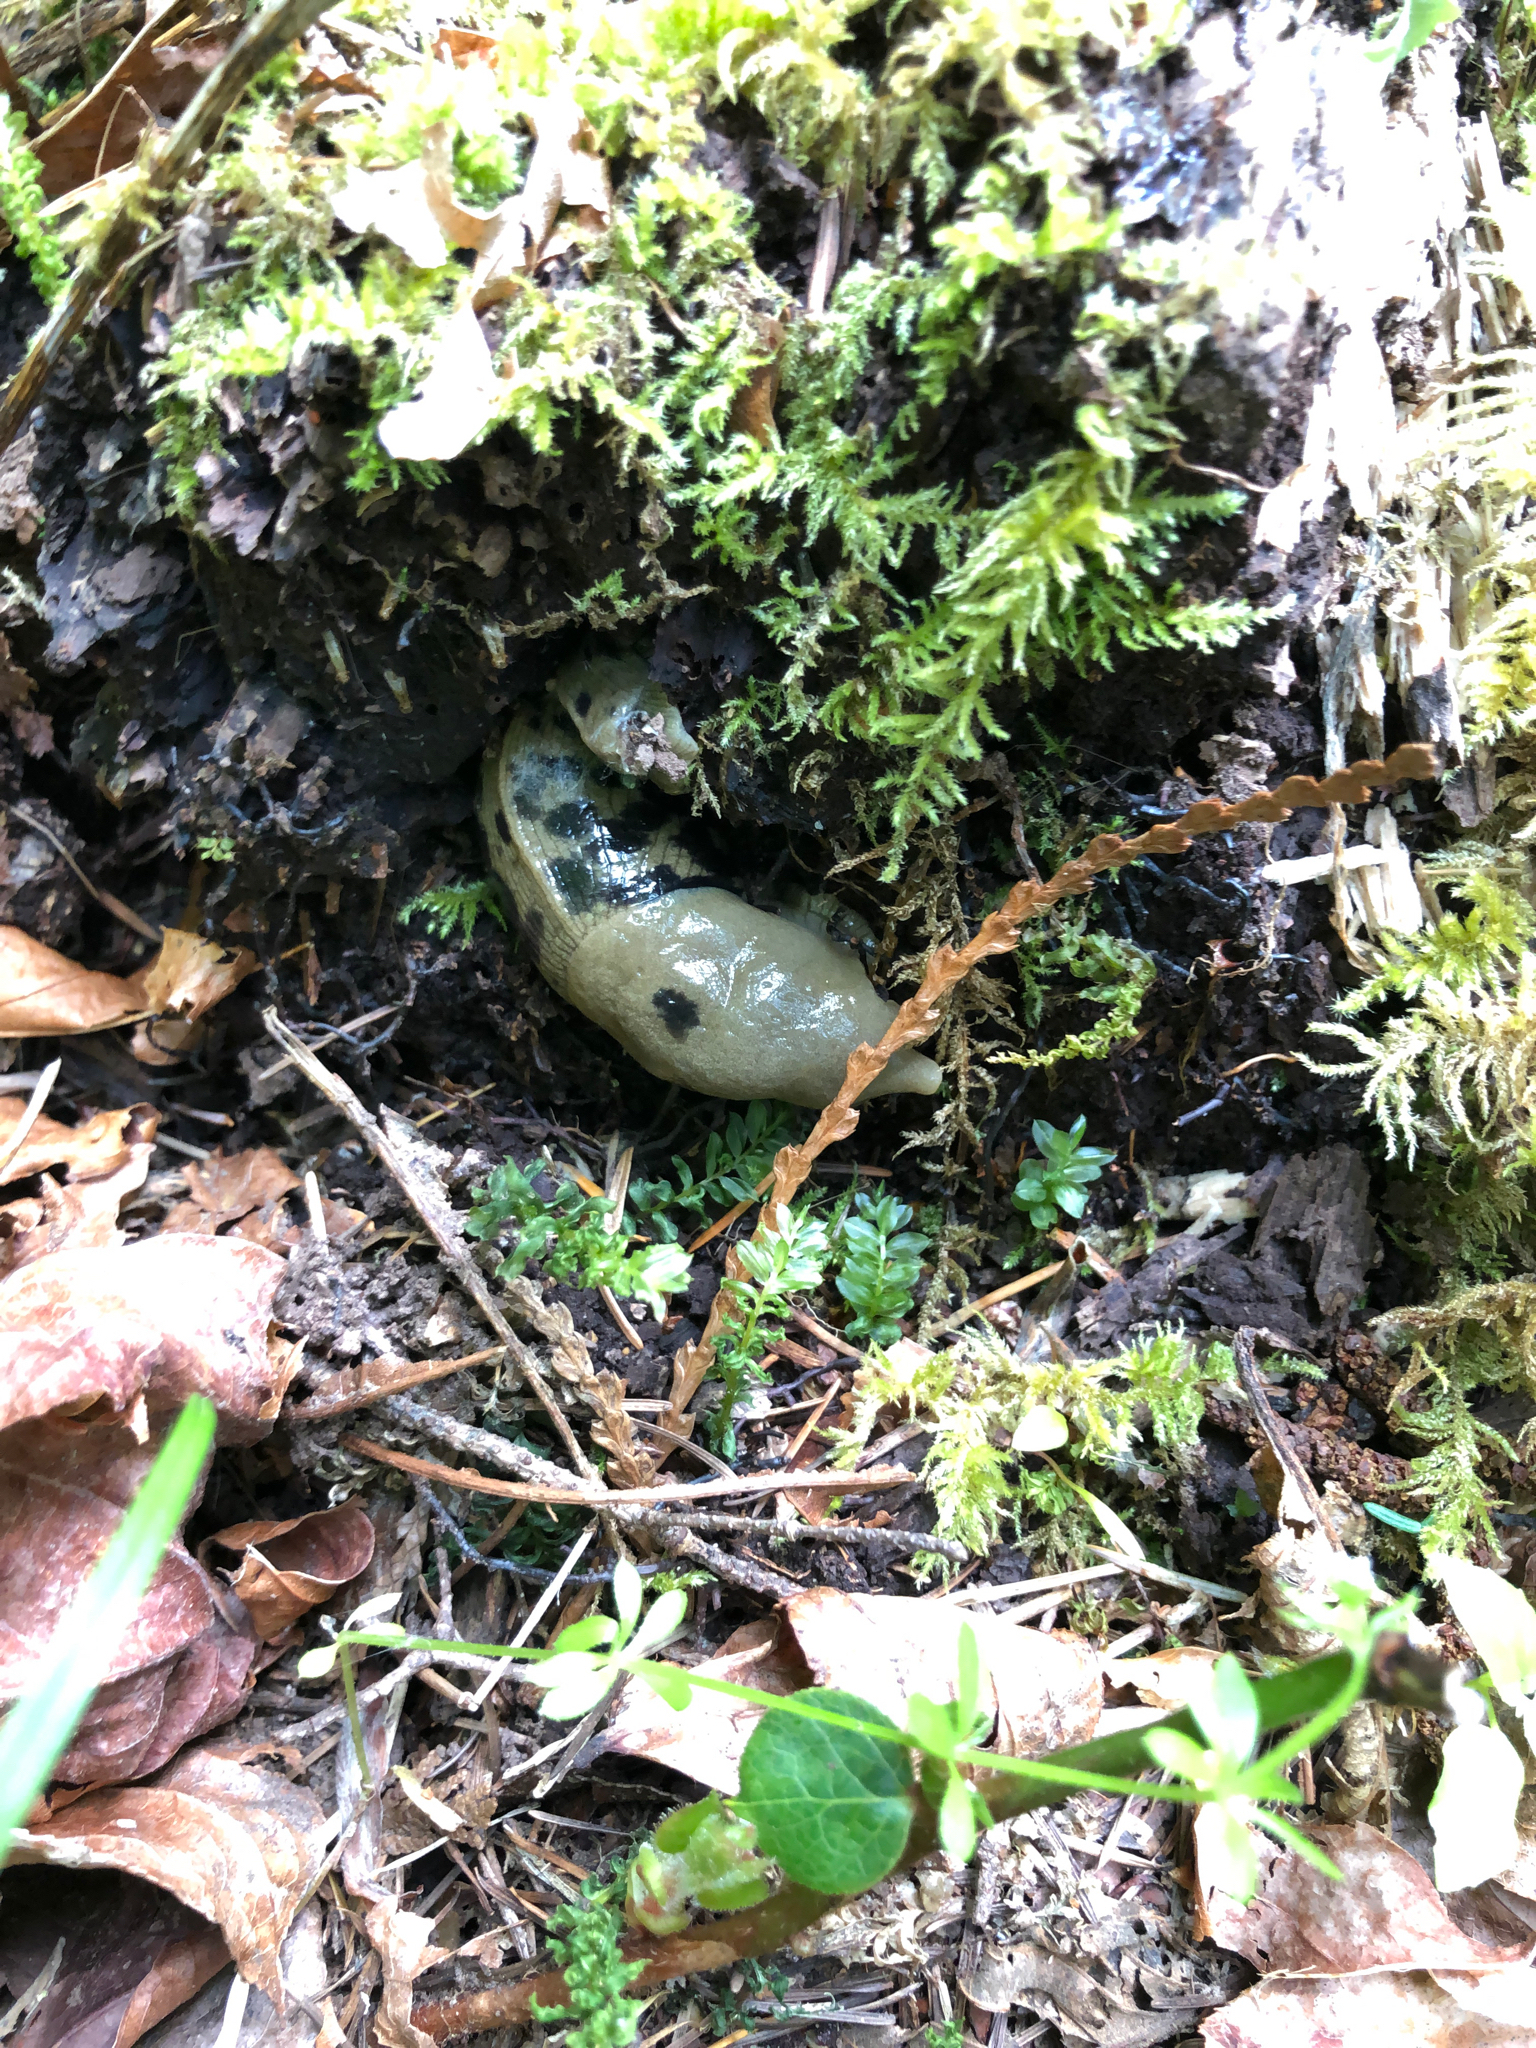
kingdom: Animalia
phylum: Mollusca
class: Gastropoda
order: Stylommatophora
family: Ariolimacidae
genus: Ariolimax
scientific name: Ariolimax columbianus
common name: Pacific banana slug
